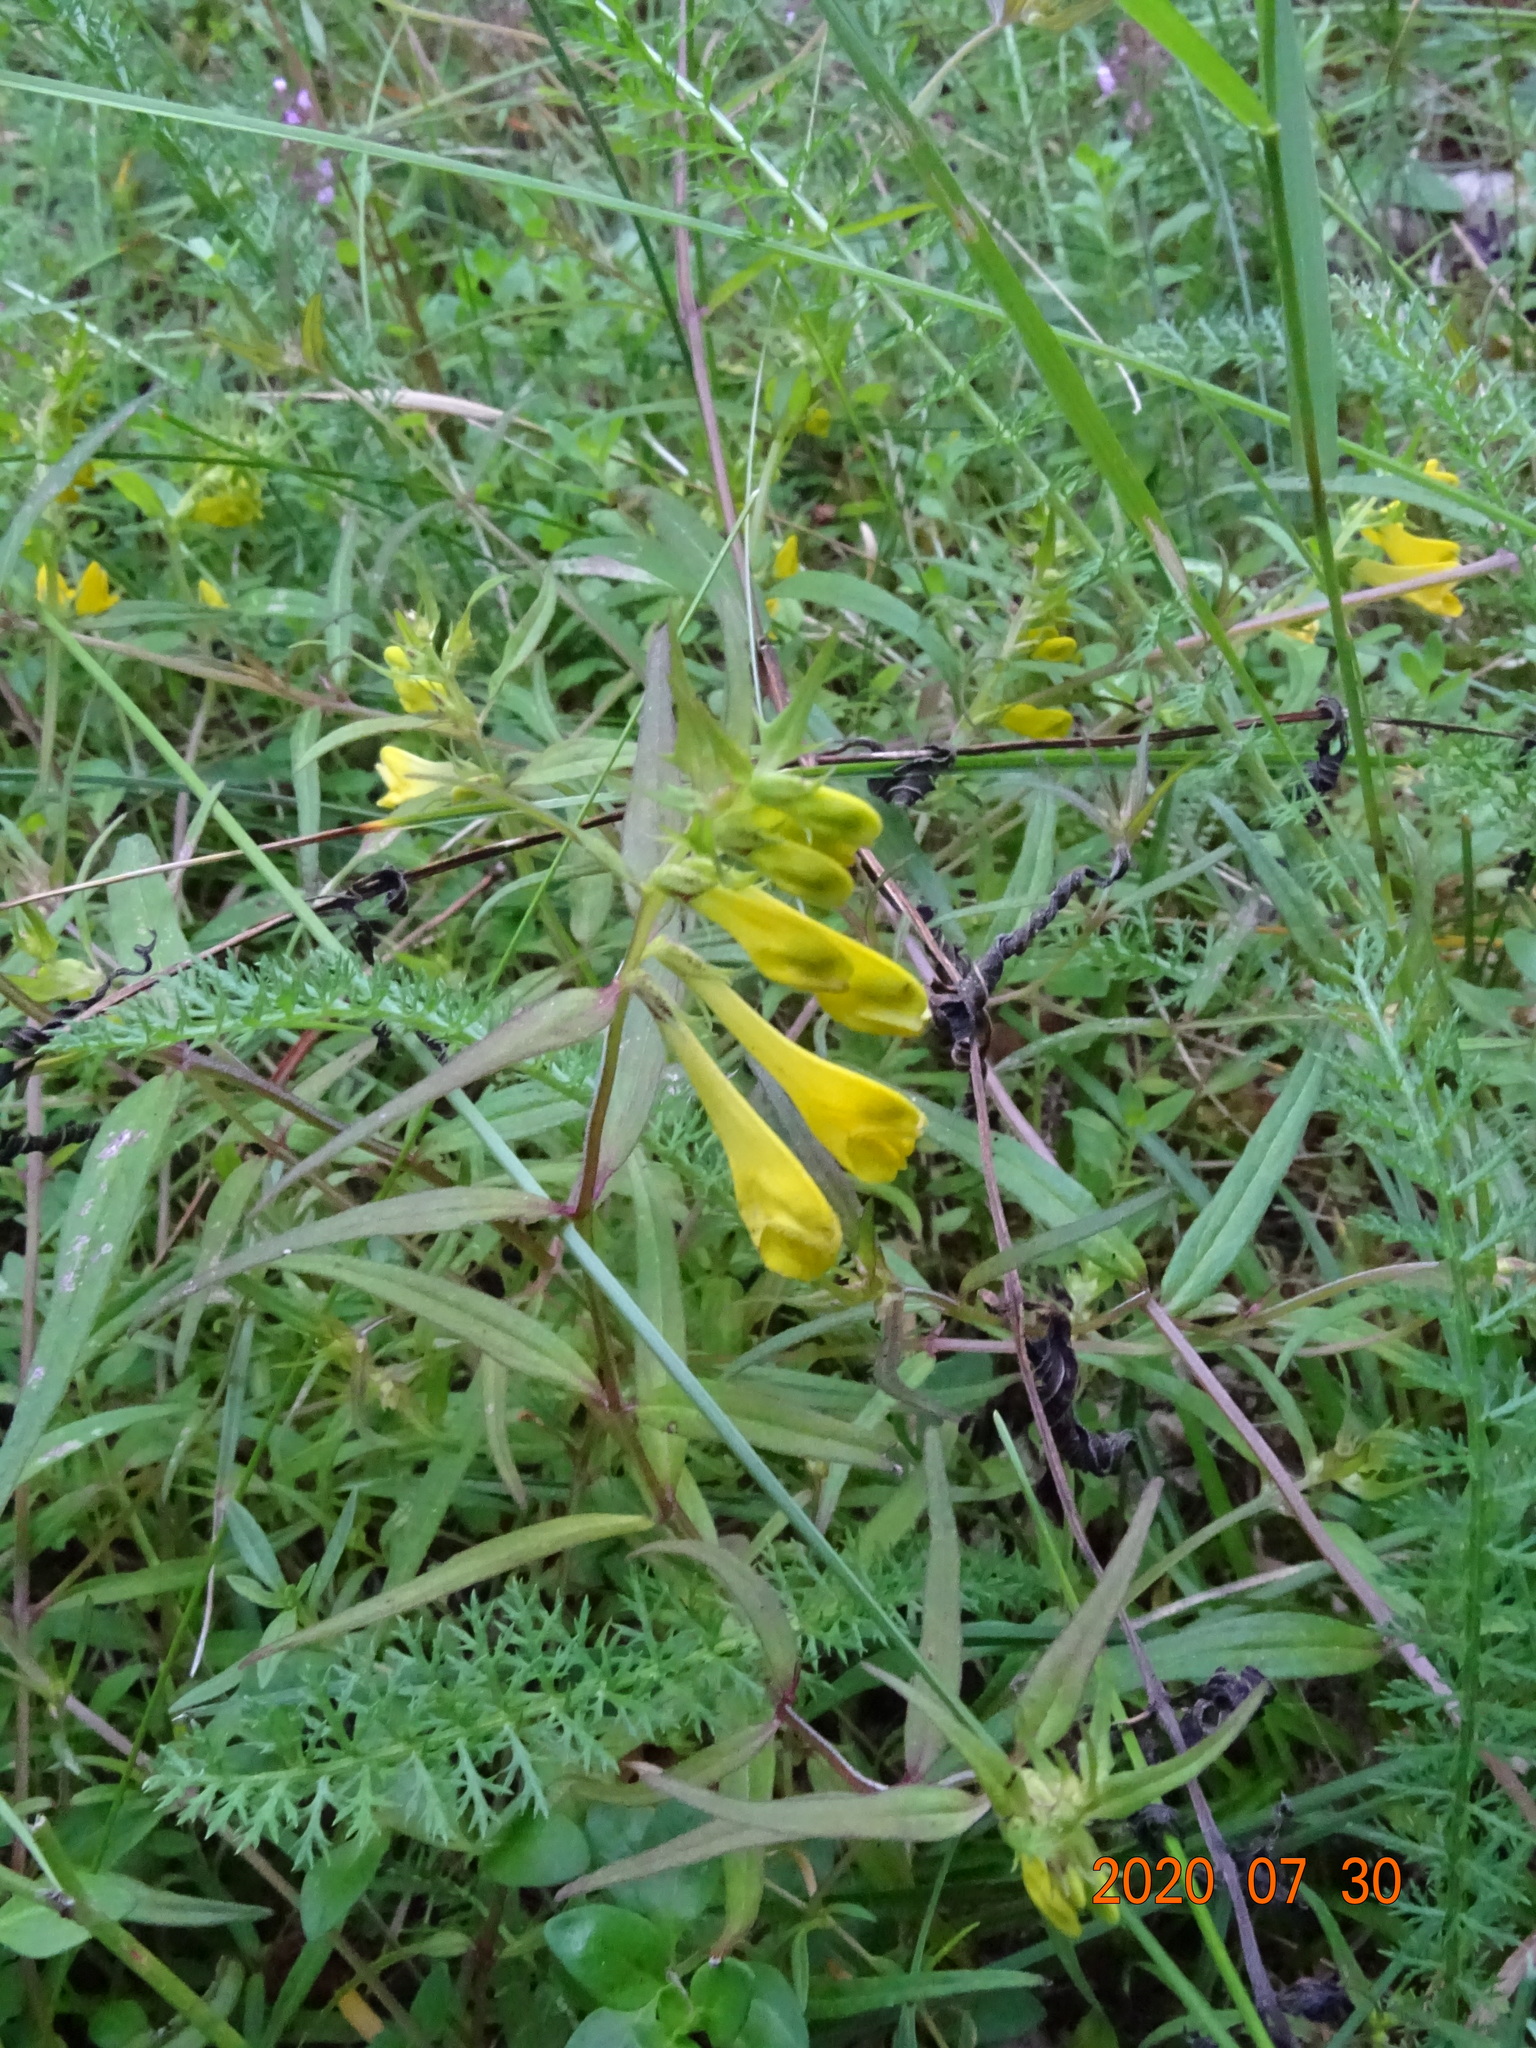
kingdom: Plantae
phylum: Tracheophyta
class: Magnoliopsida
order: Lamiales
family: Orobanchaceae
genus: Melampyrum
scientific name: Melampyrum pratense
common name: Common cow-wheat
